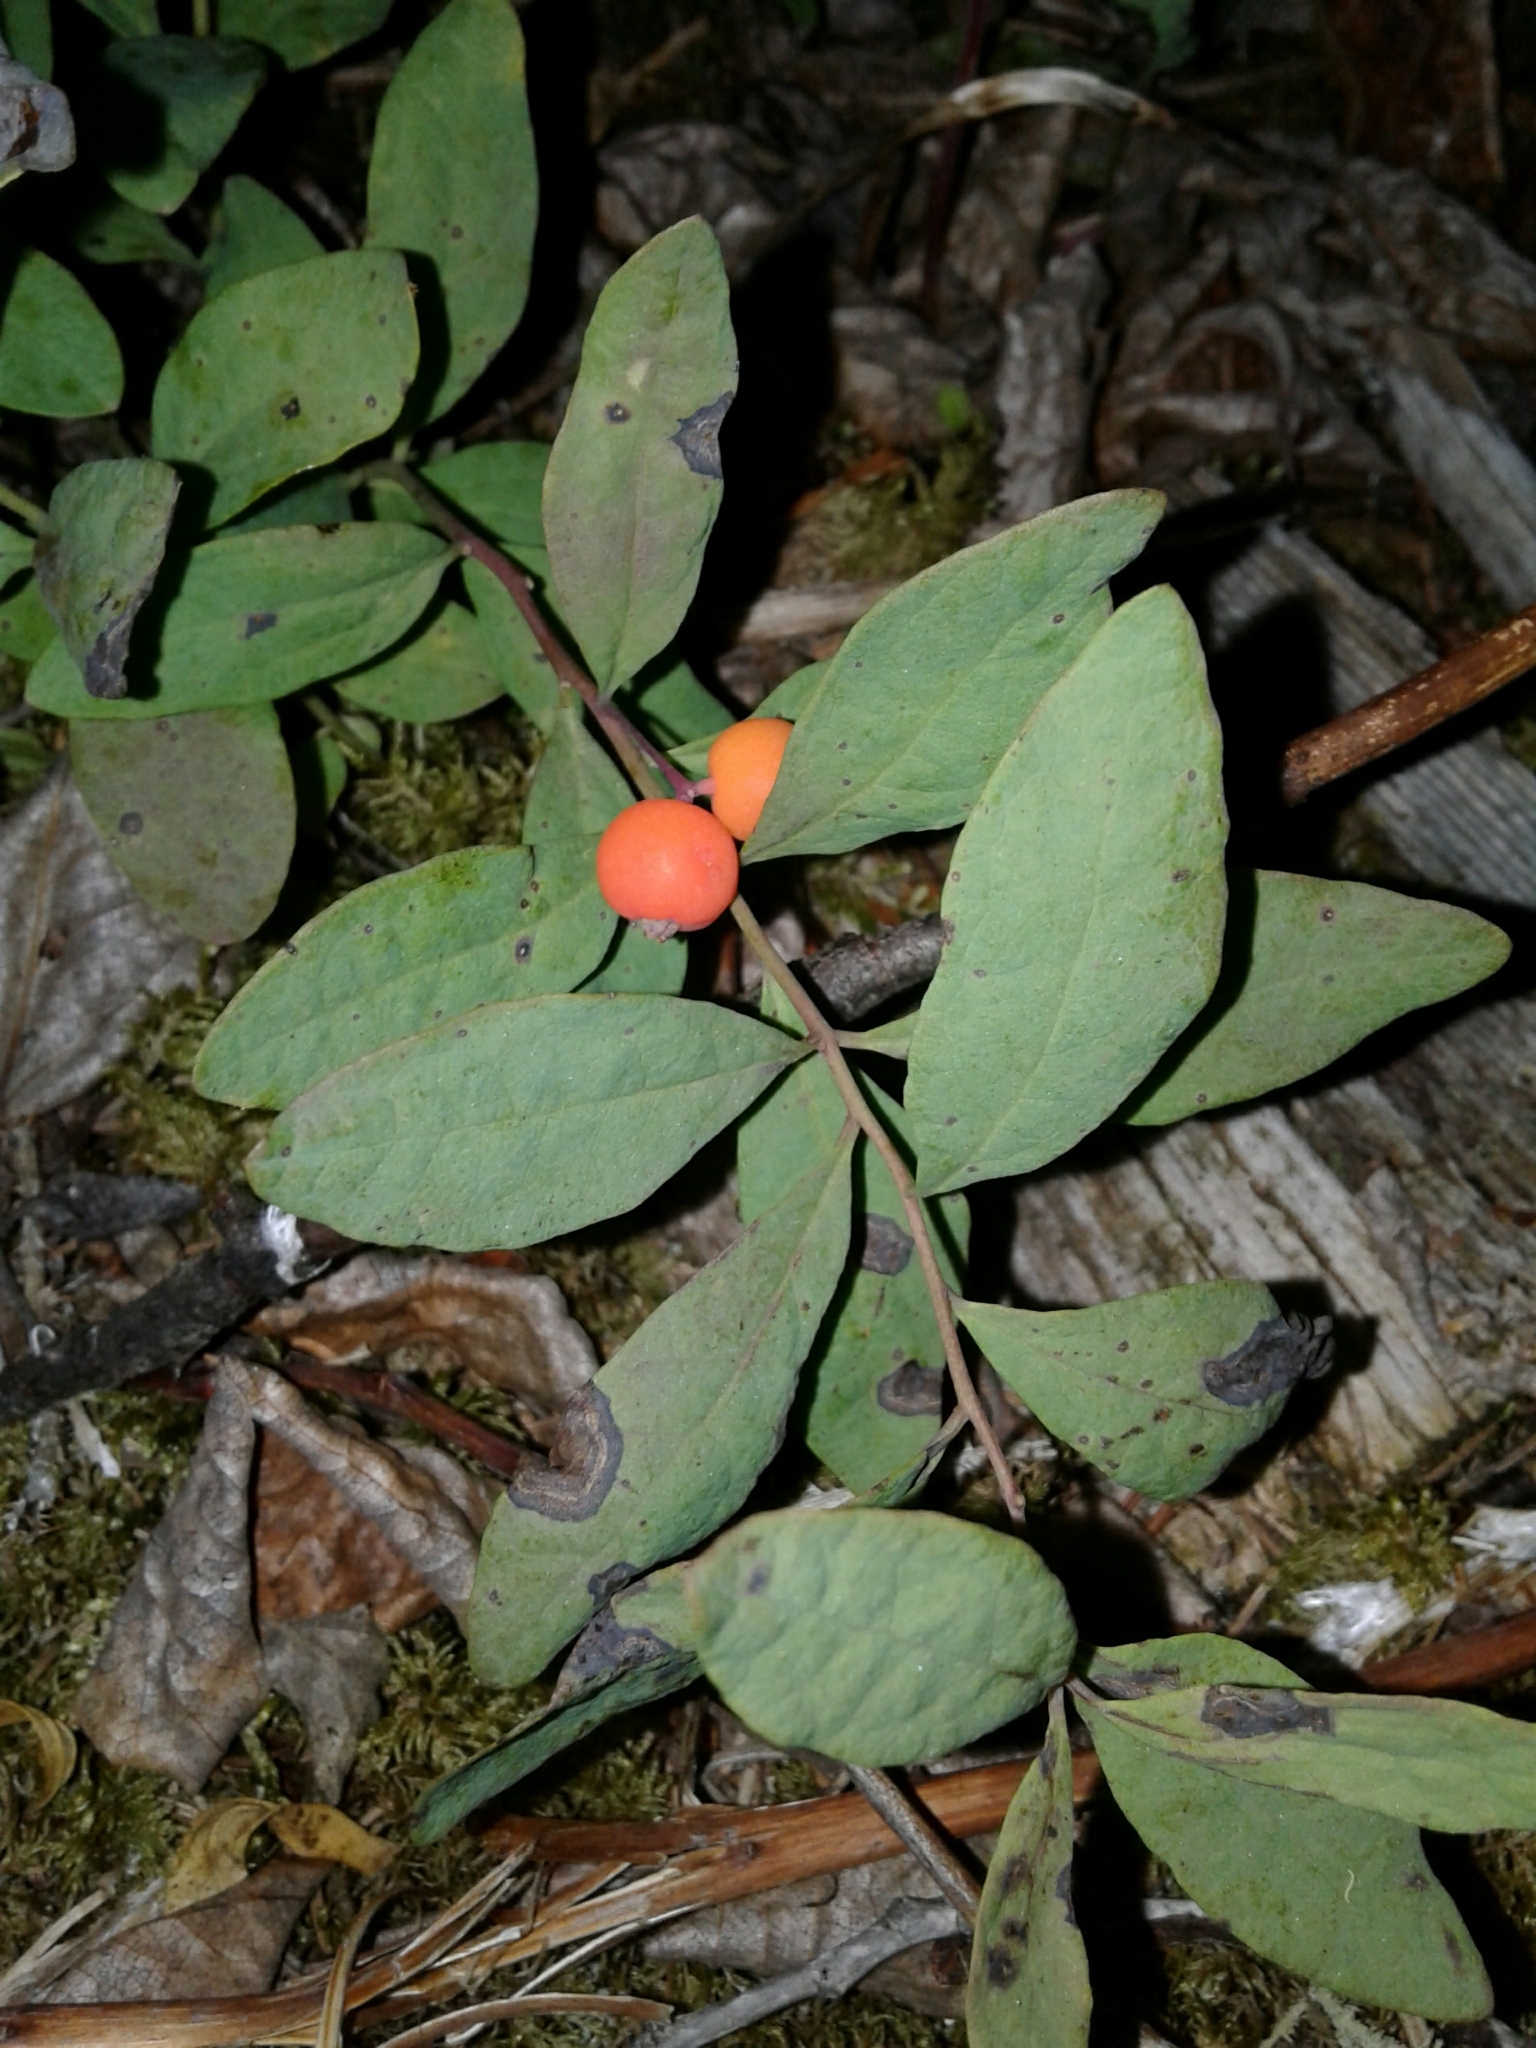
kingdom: Plantae
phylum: Tracheophyta
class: Magnoliopsida
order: Santalales
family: Comandraceae
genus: Geocaulon
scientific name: Geocaulon lividum
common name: Earthberry
